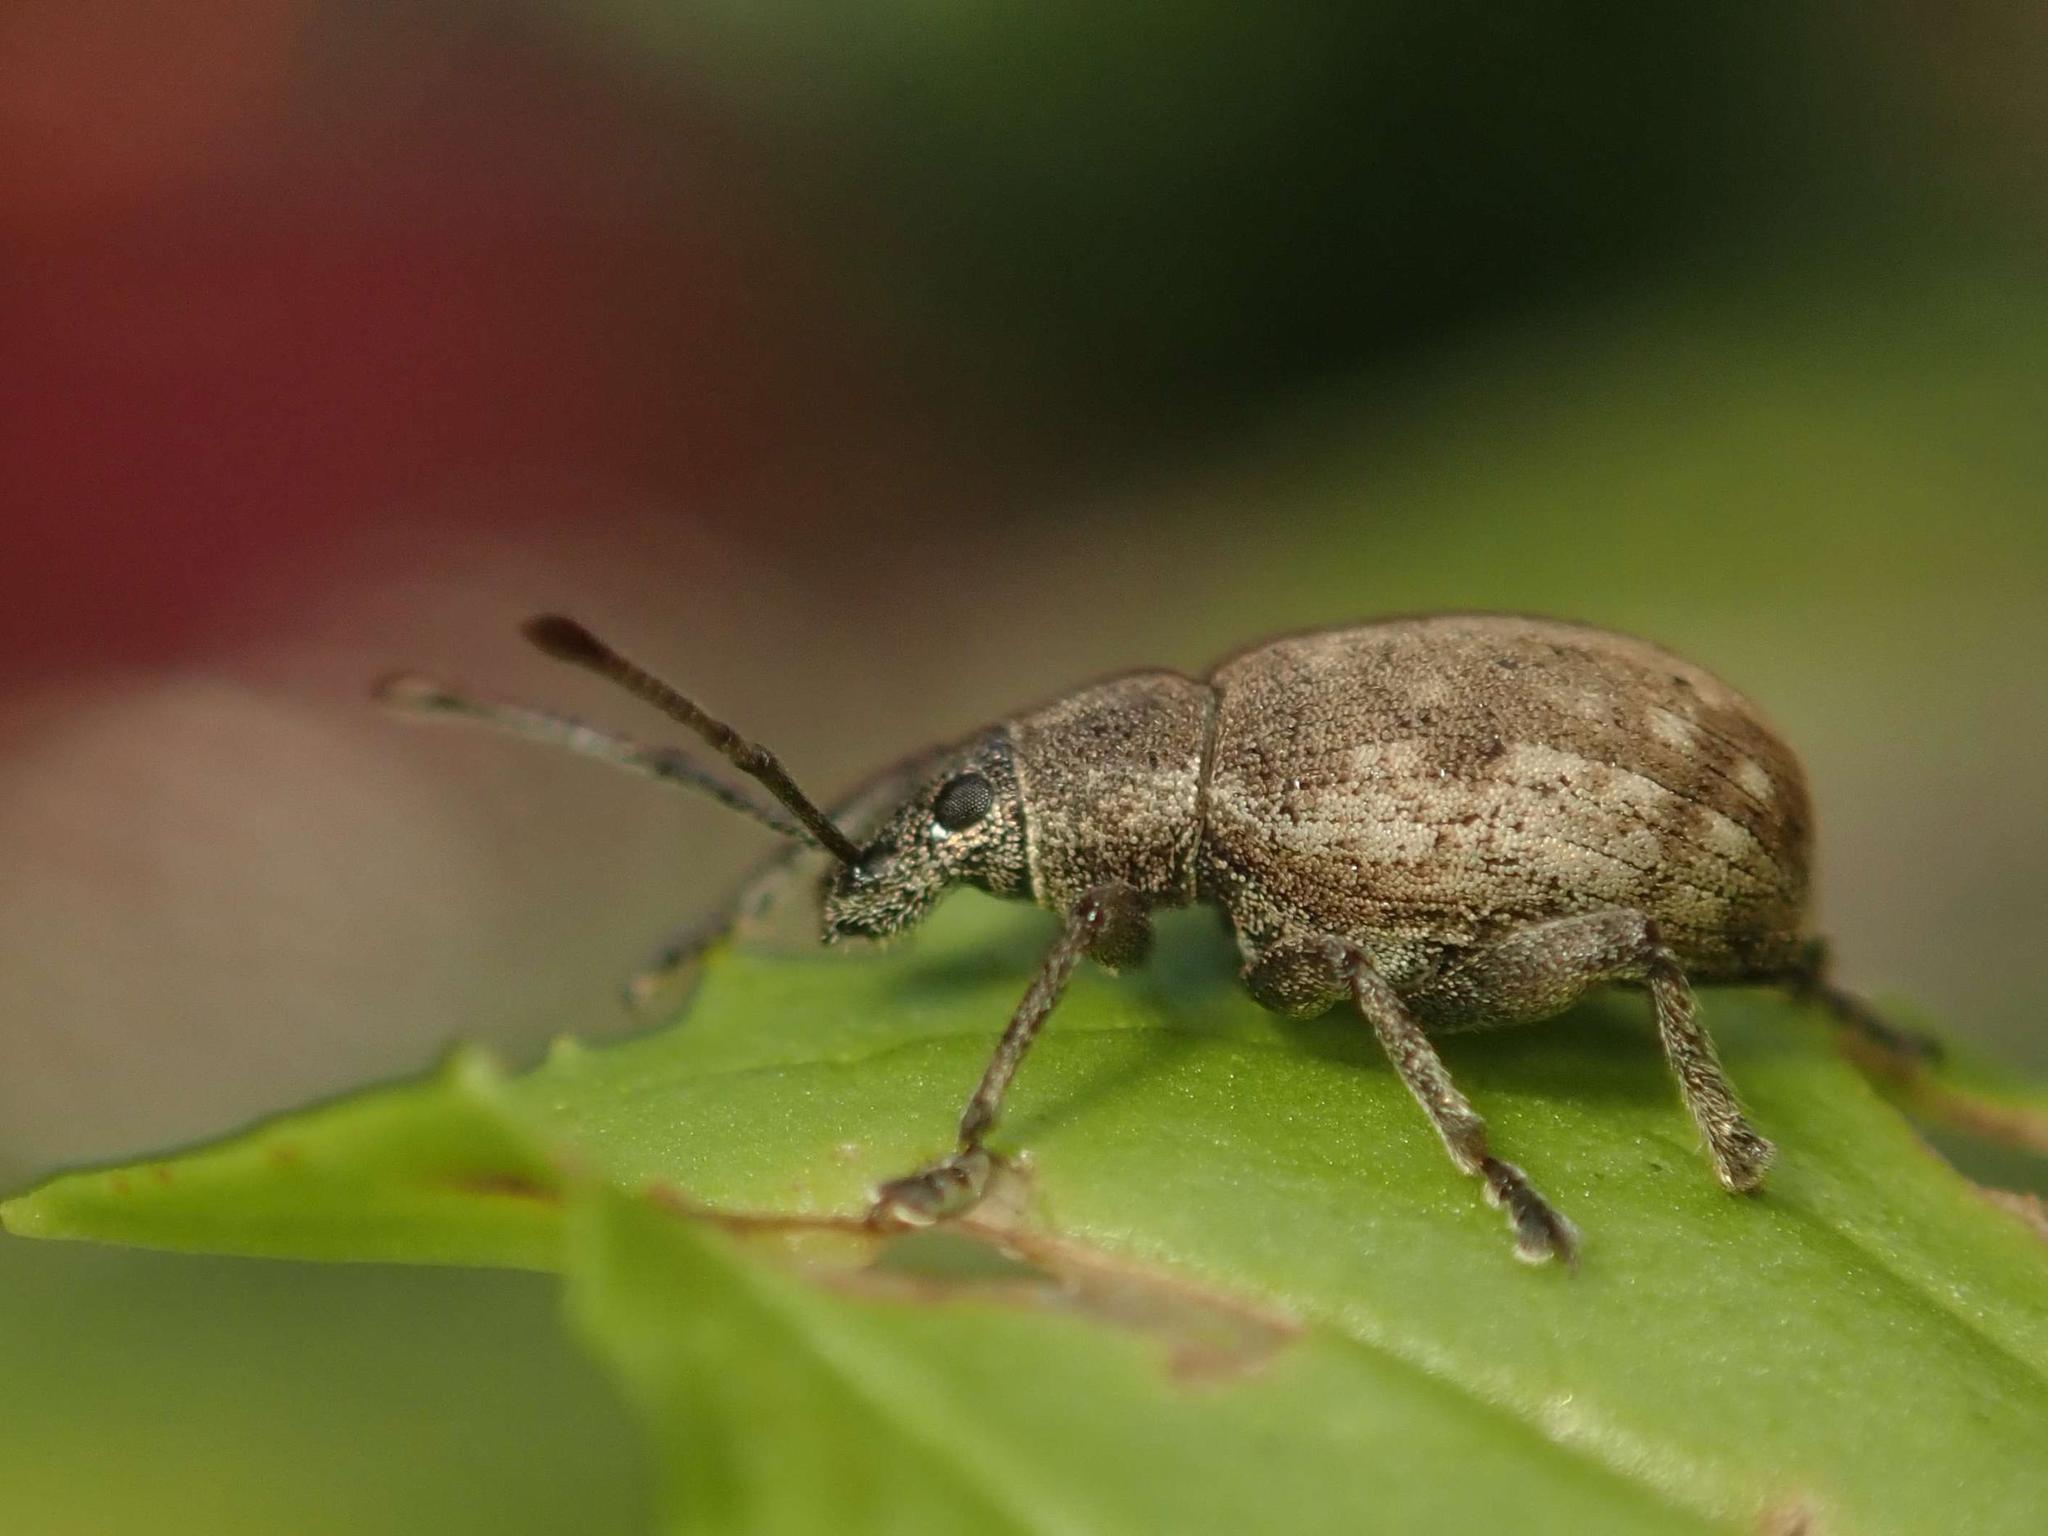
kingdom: Animalia
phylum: Arthropoda
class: Insecta
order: Coleoptera
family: Curculionidae
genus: Peritelus
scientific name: Peritelus sphaeroides
